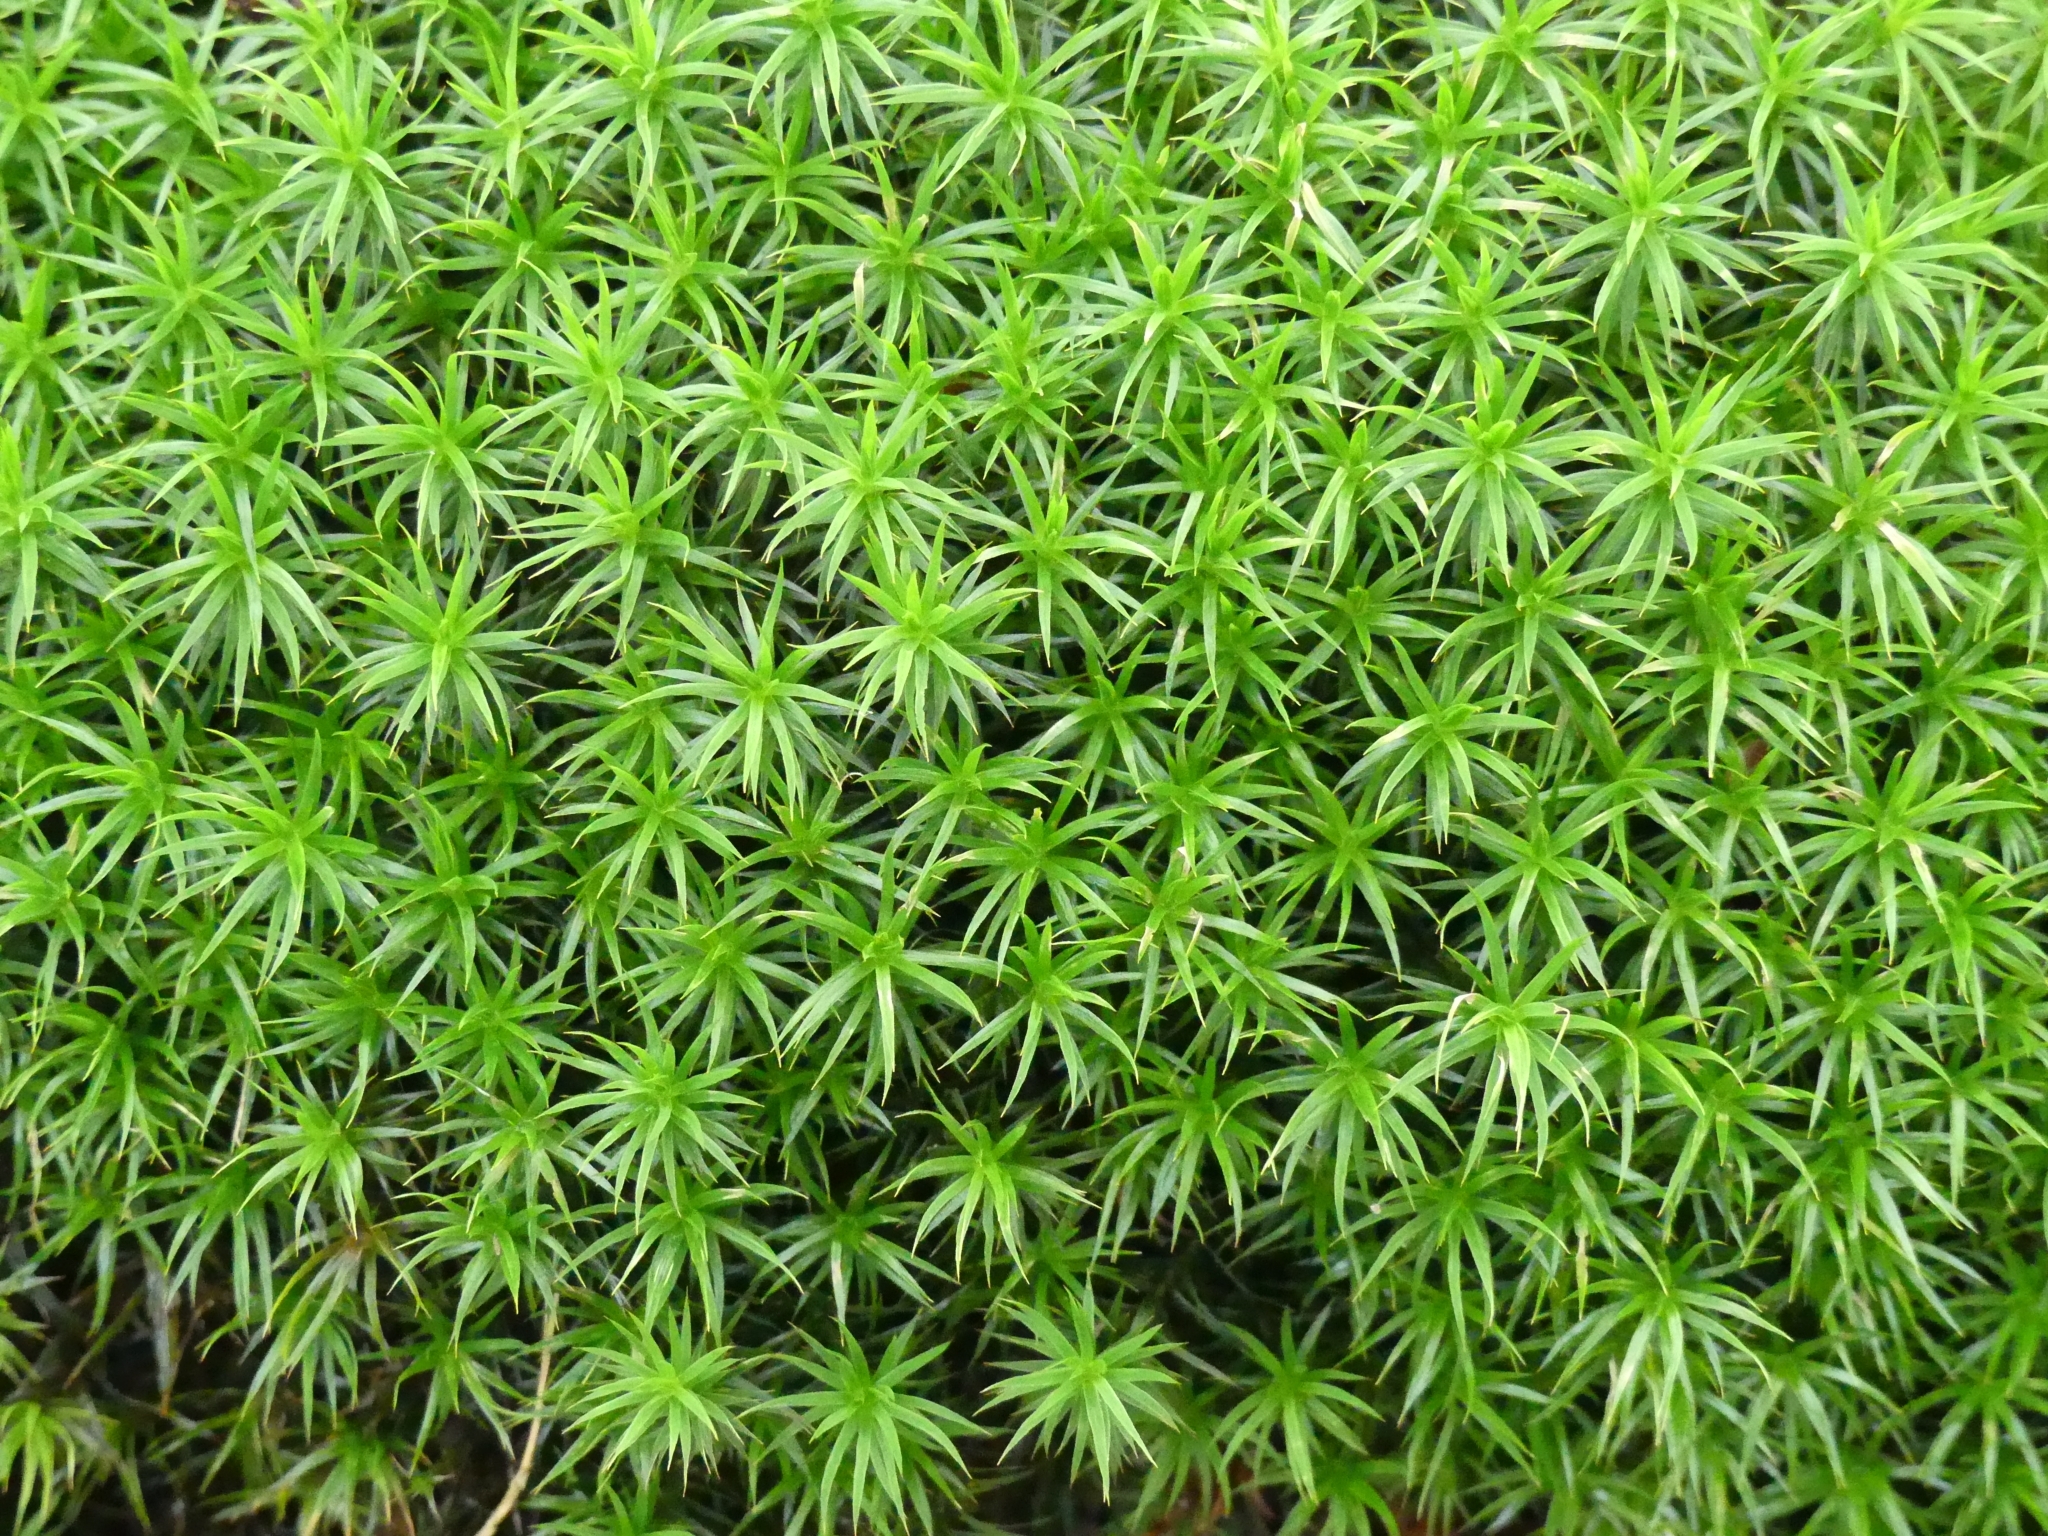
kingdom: Plantae
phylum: Bryophyta
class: Polytrichopsida
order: Polytrichales
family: Polytrichaceae
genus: Polytrichum
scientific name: Polytrichum formosum
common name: Bank haircap moss
